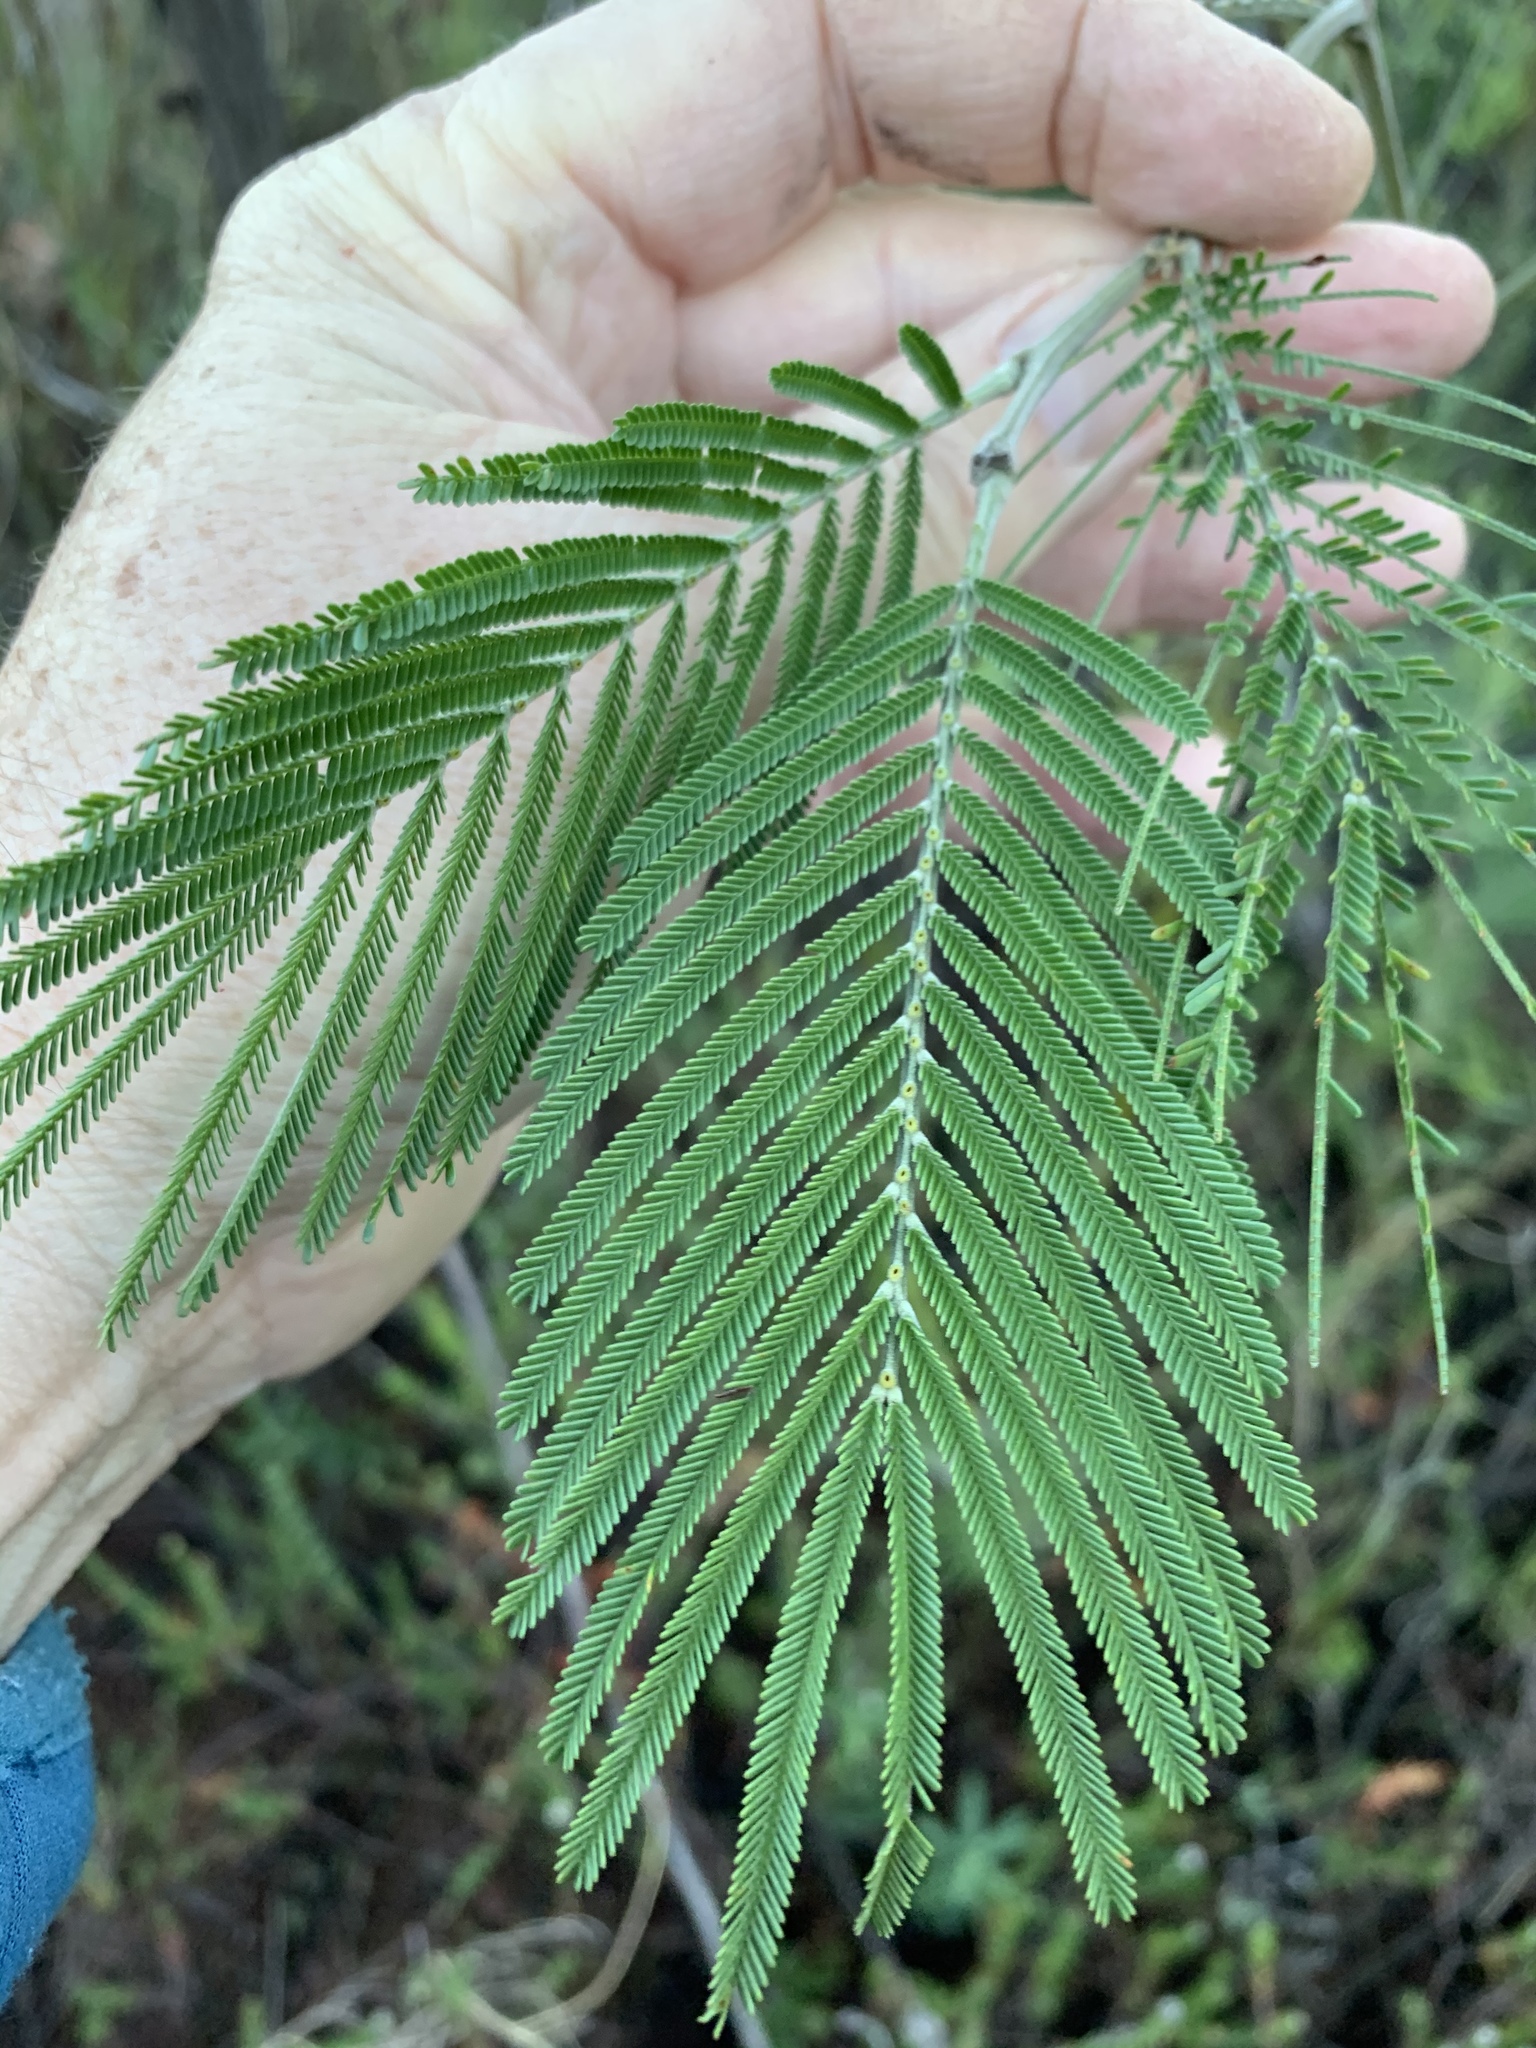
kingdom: Plantae
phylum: Tracheophyta
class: Magnoliopsida
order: Fabales
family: Fabaceae
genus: Acacia
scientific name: Acacia mearnsii
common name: Black wattle
